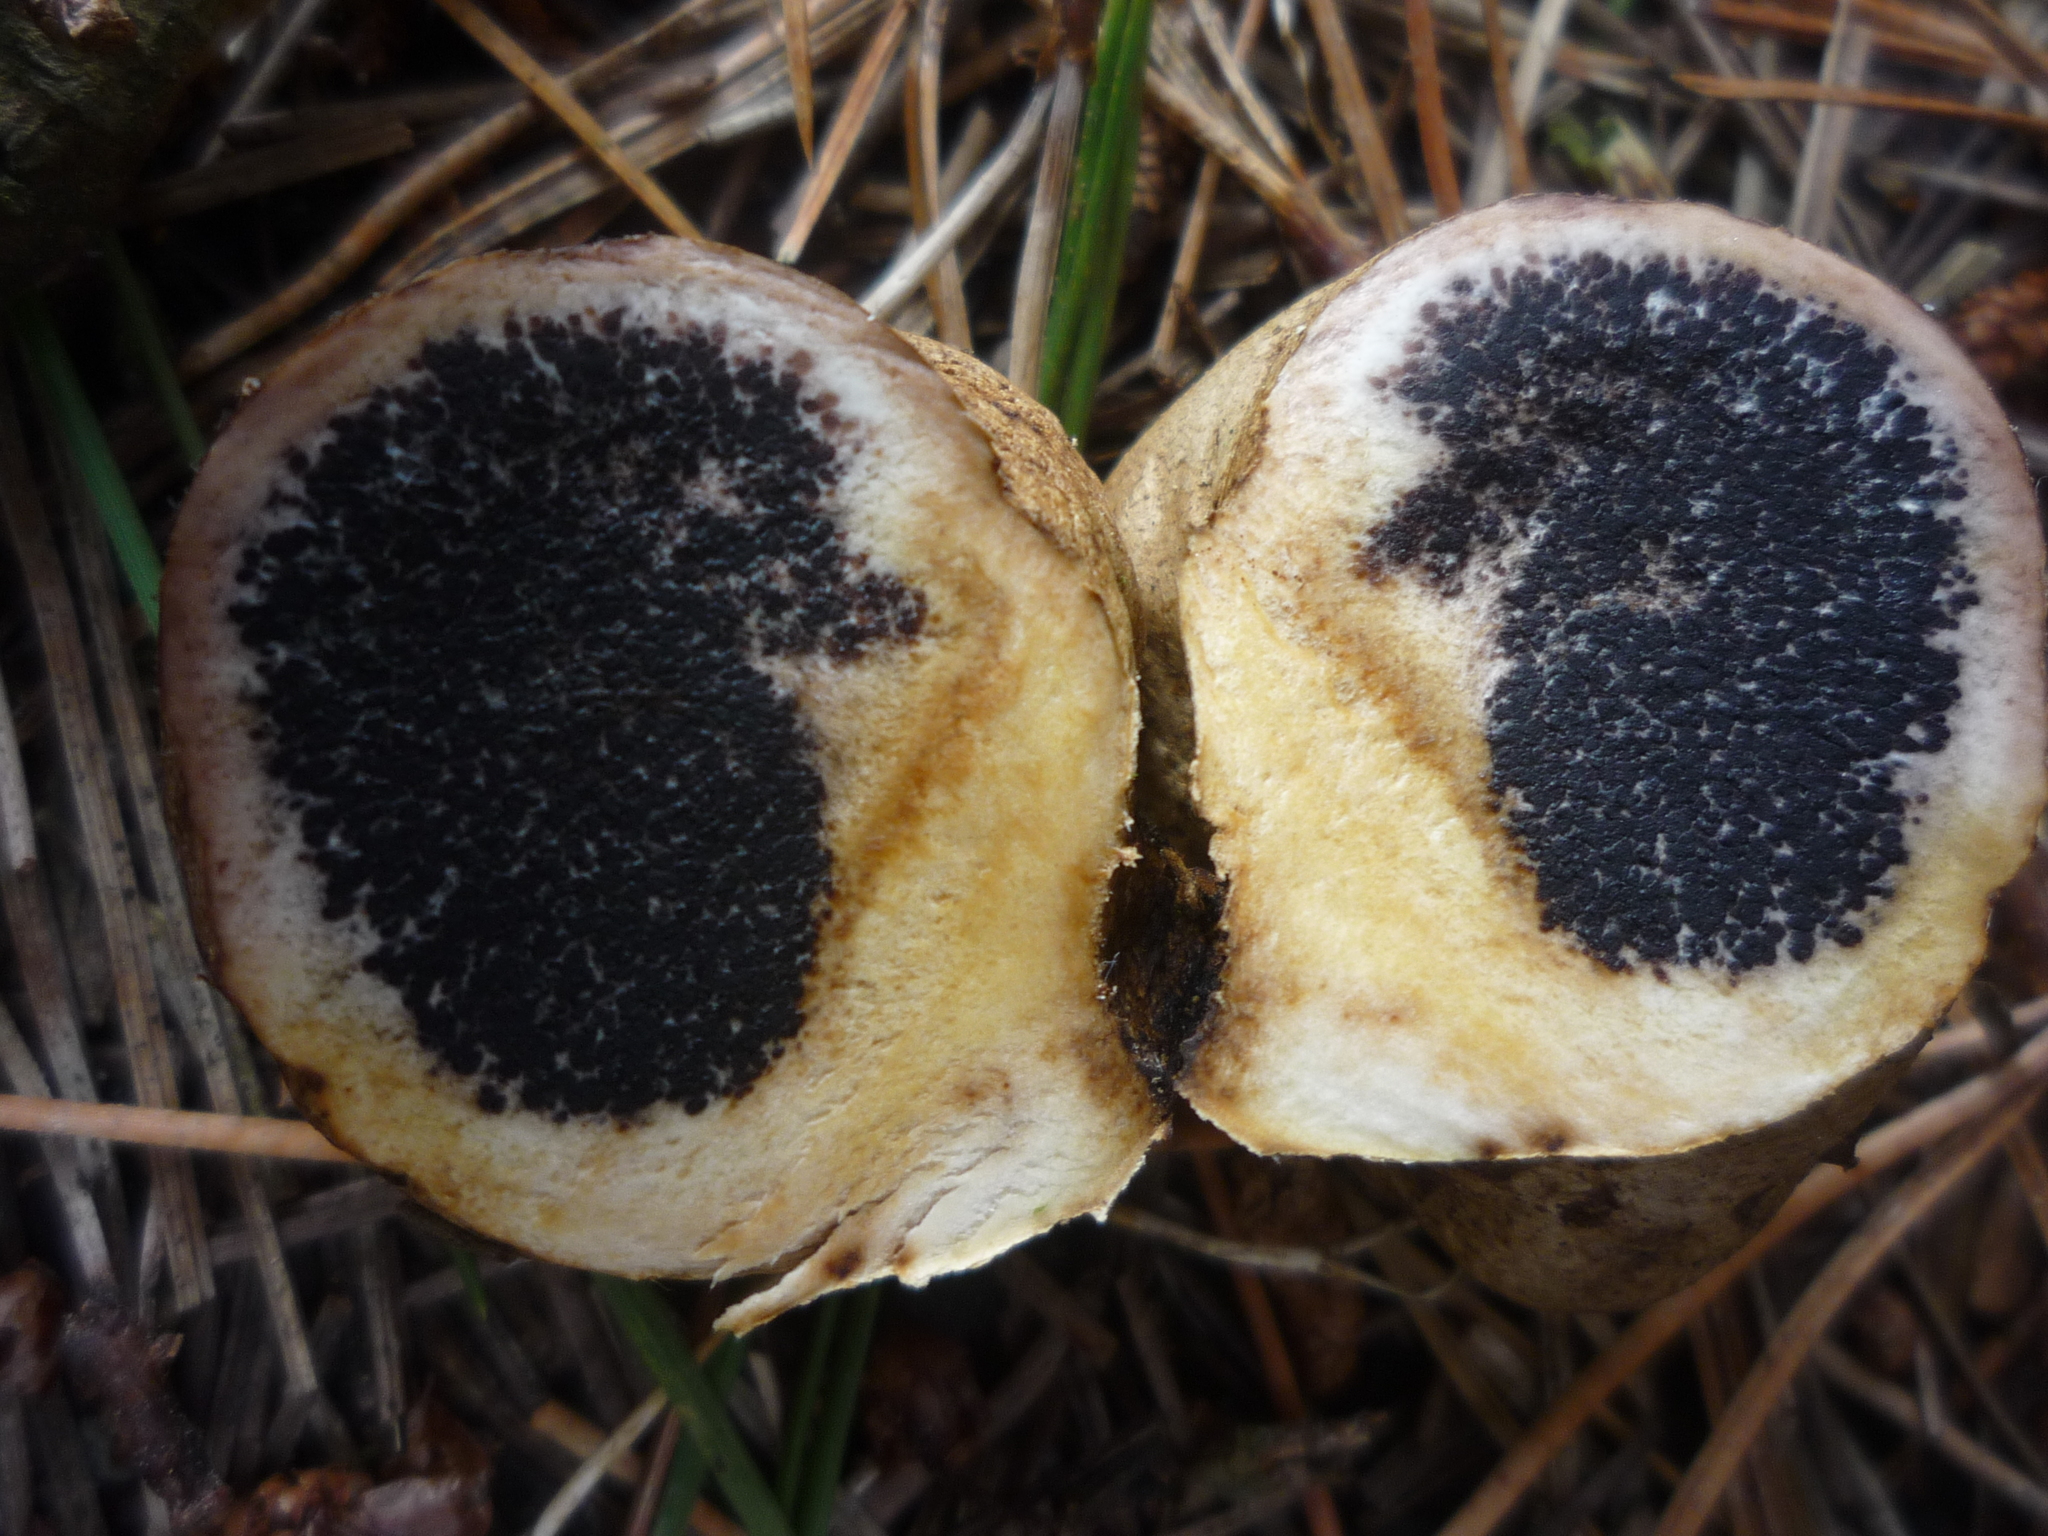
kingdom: Fungi
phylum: Basidiomycota
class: Agaricomycetes
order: Boletales
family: Sclerodermataceae
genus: Scleroderma
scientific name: Scleroderma bovista
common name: Potato earthball
